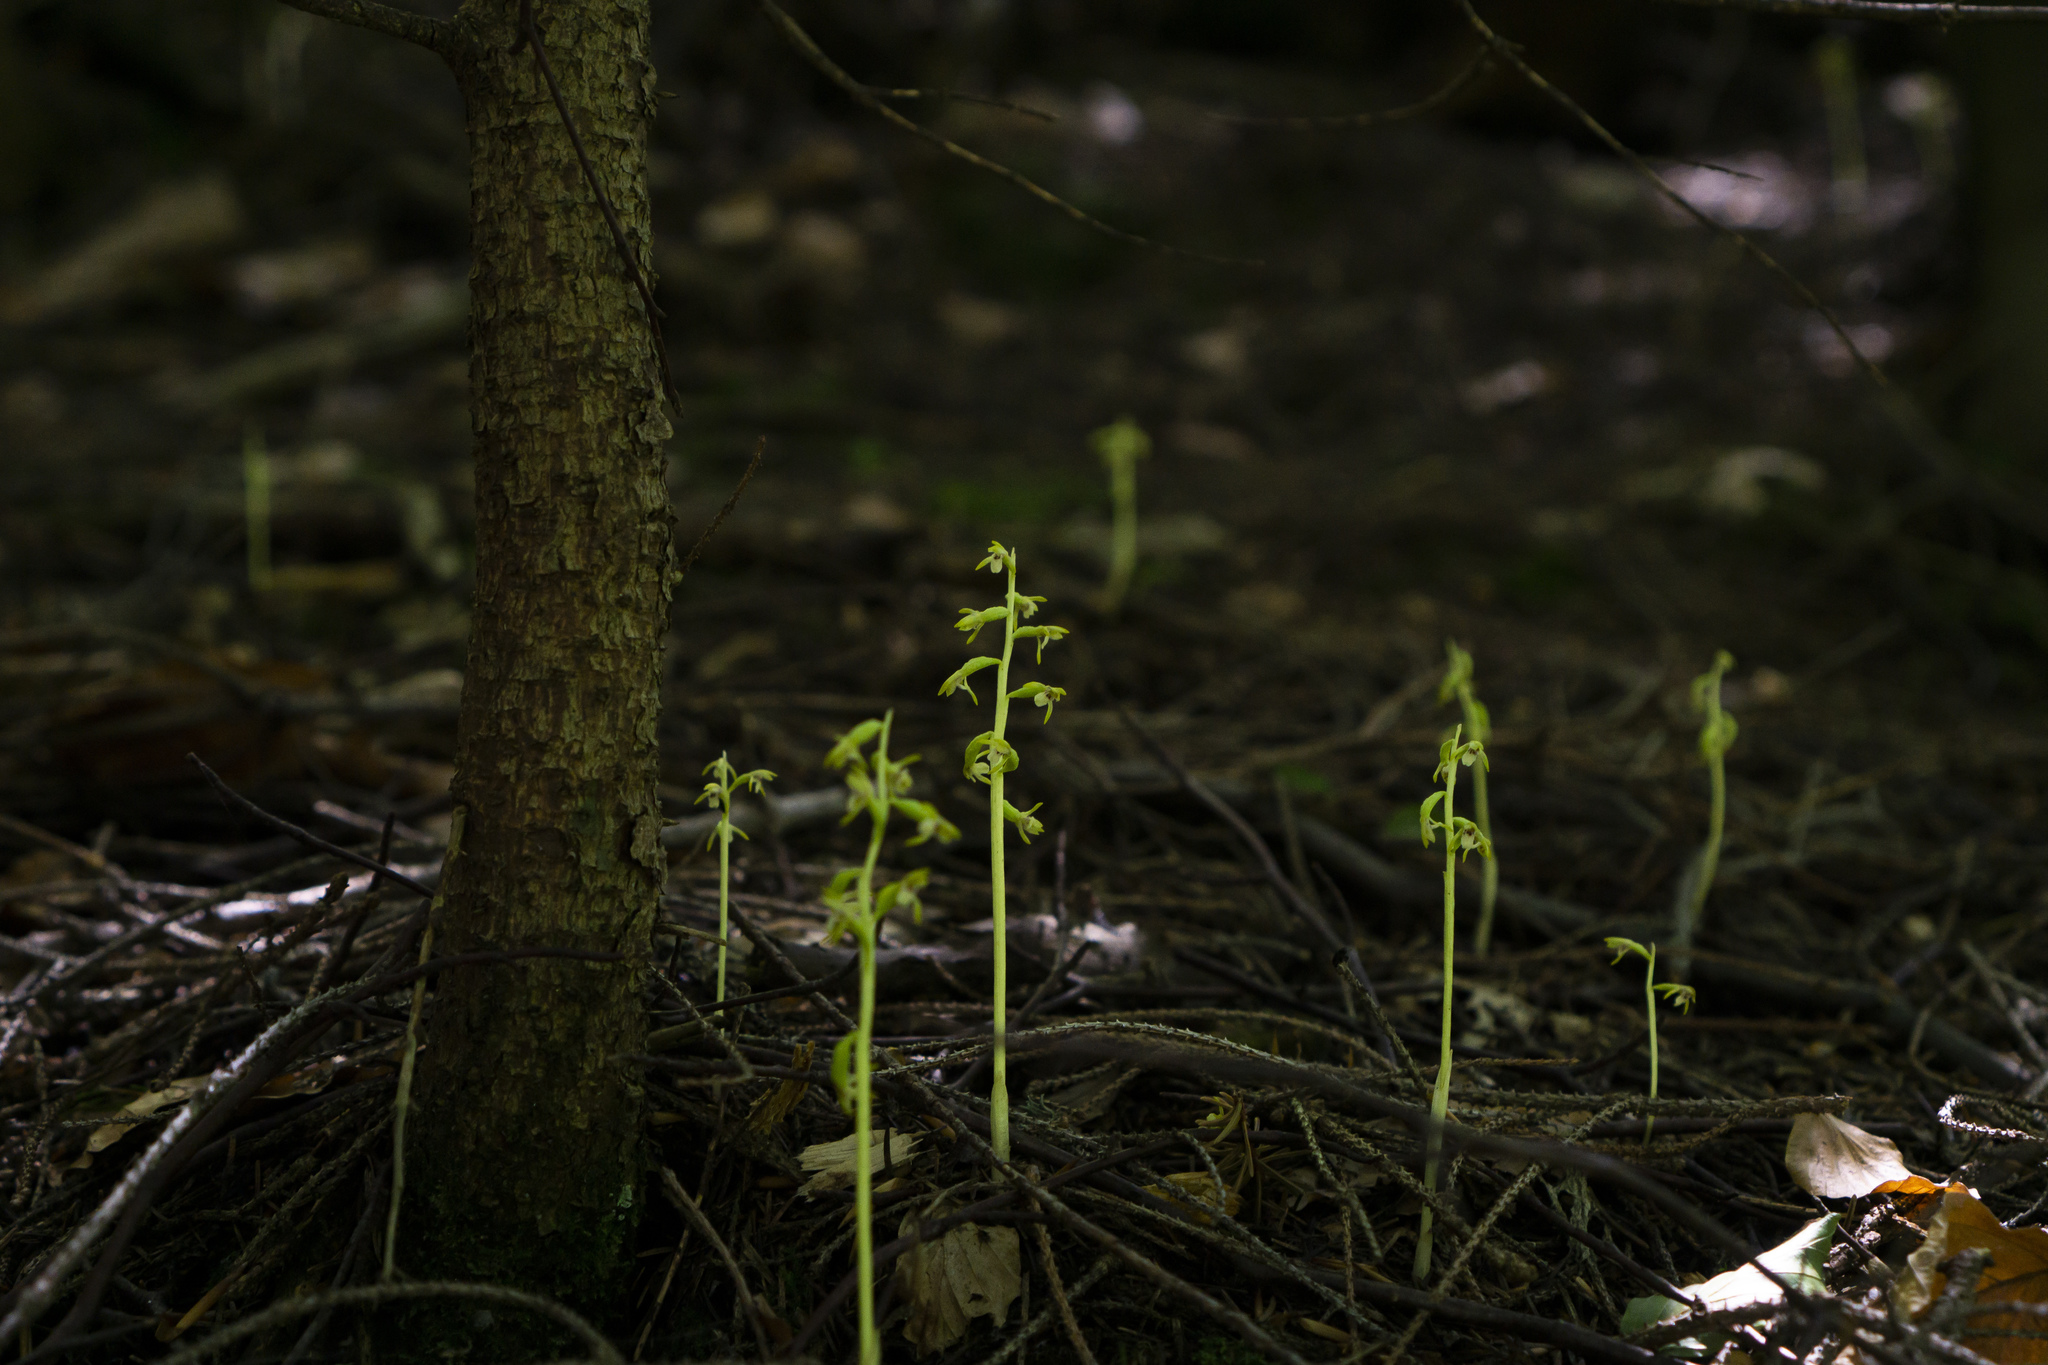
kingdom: Plantae
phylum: Tracheophyta
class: Liliopsida
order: Asparagales
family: Orchidaceae
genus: Corallorhiza
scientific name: Corallorhiza trifida
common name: Yellow coralroot
